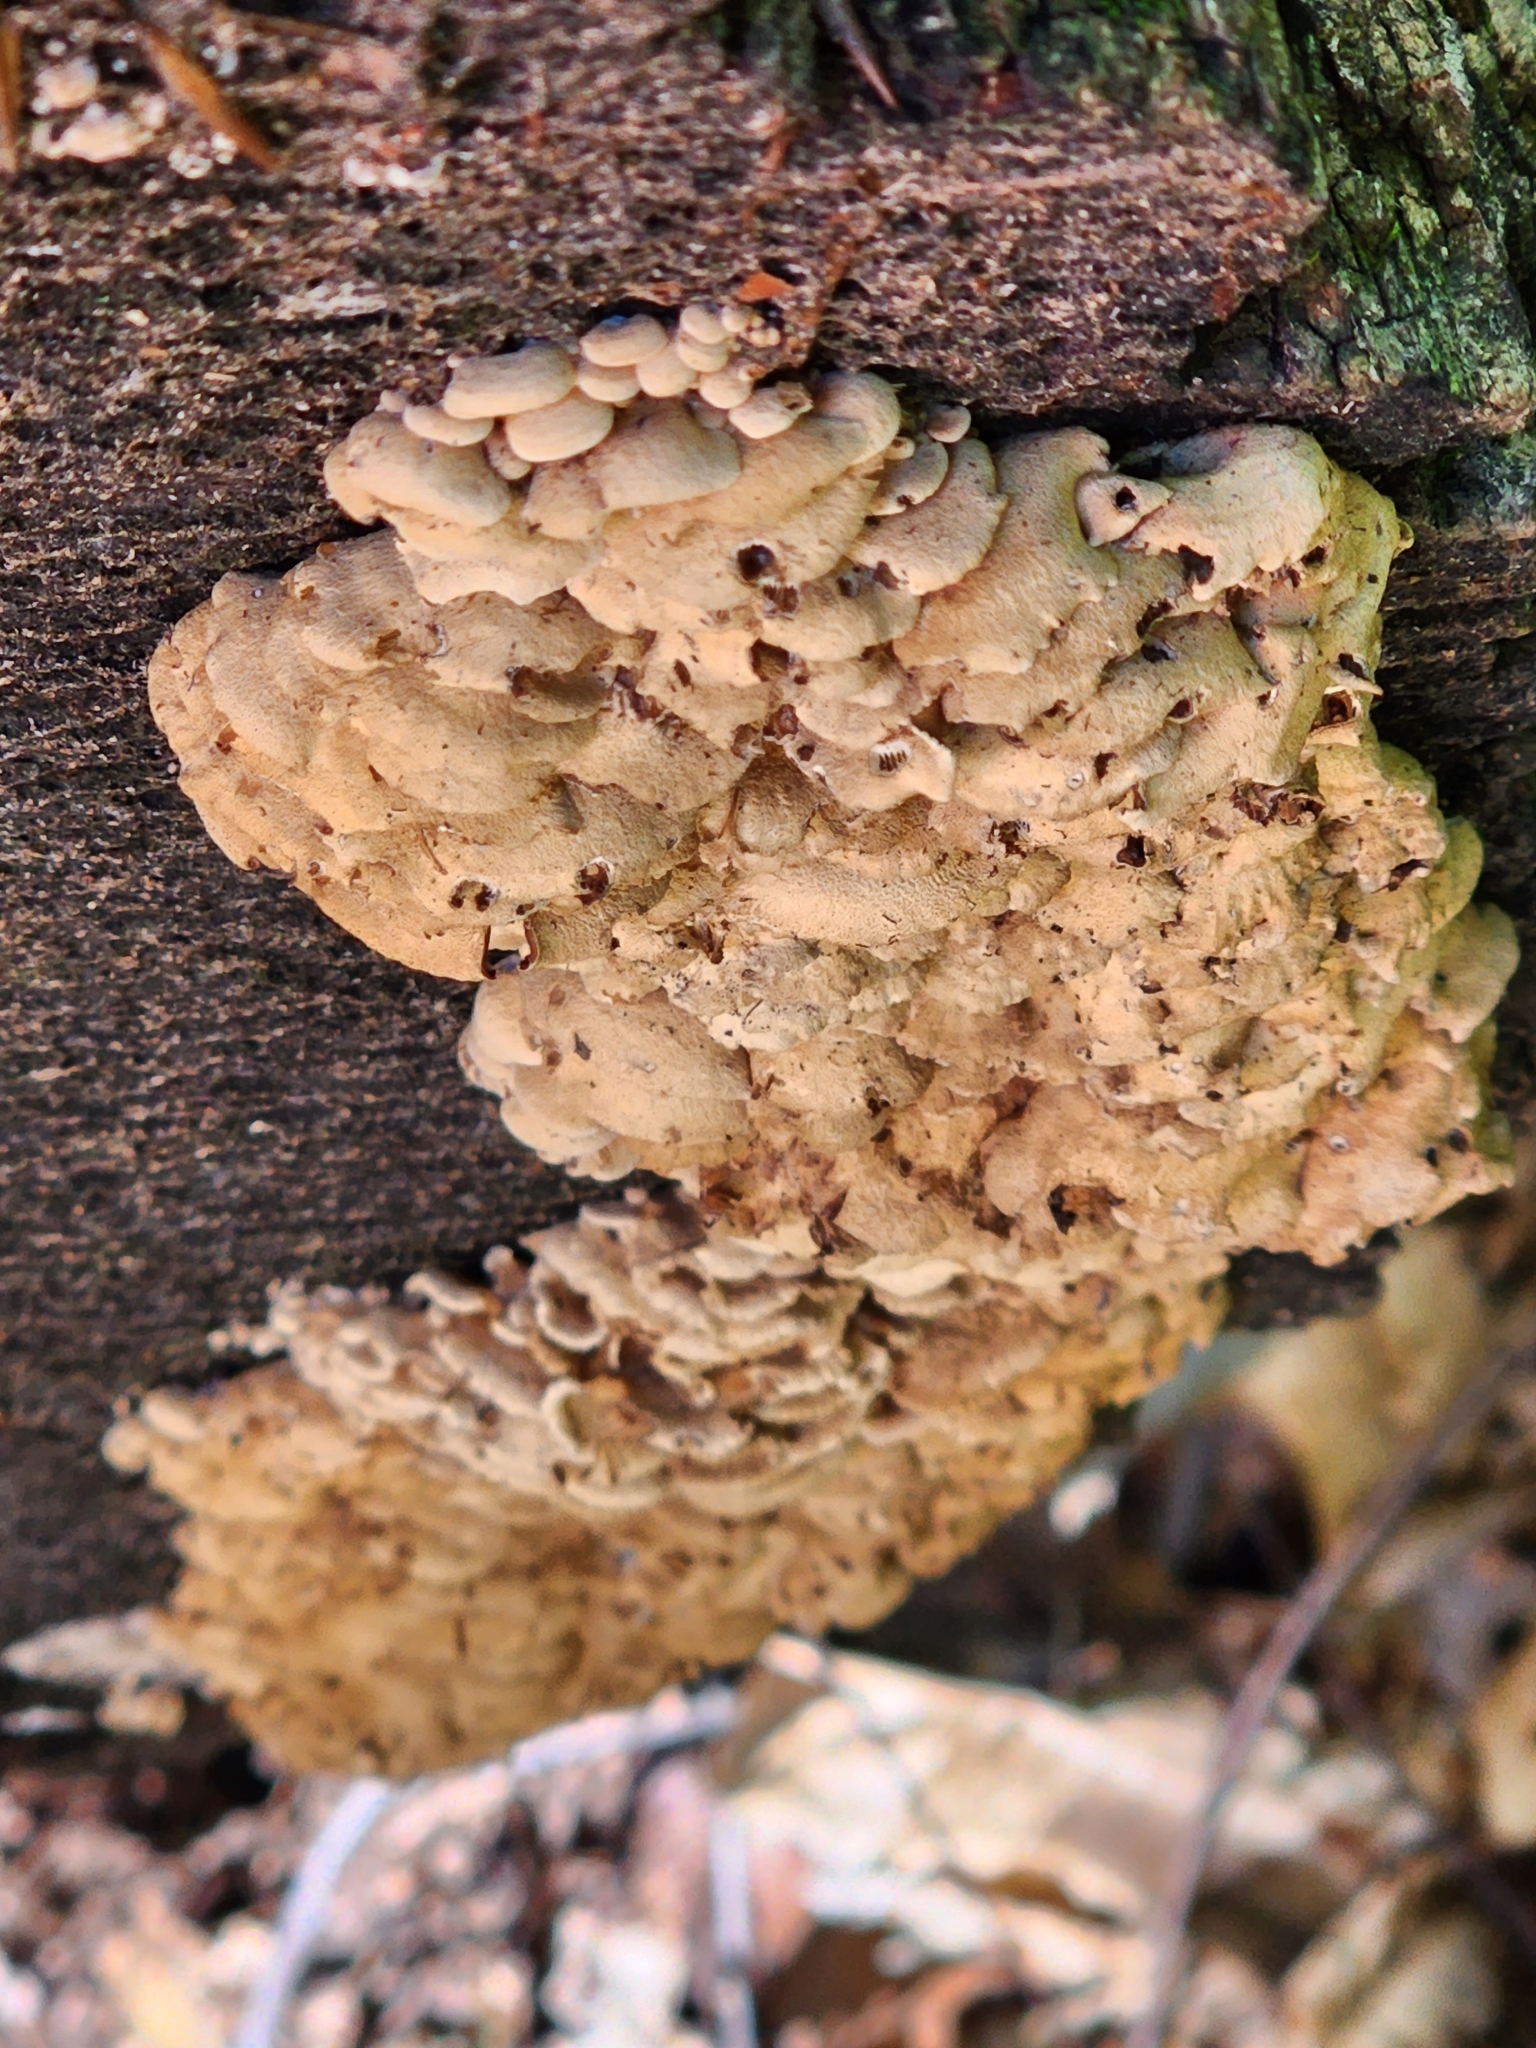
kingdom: Fungi
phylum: Basidiomycota
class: Agaricomycetes
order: Agaricales
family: Mycenaceae
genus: Panellus
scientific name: Panellus stipticus
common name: Bitter oysterling
